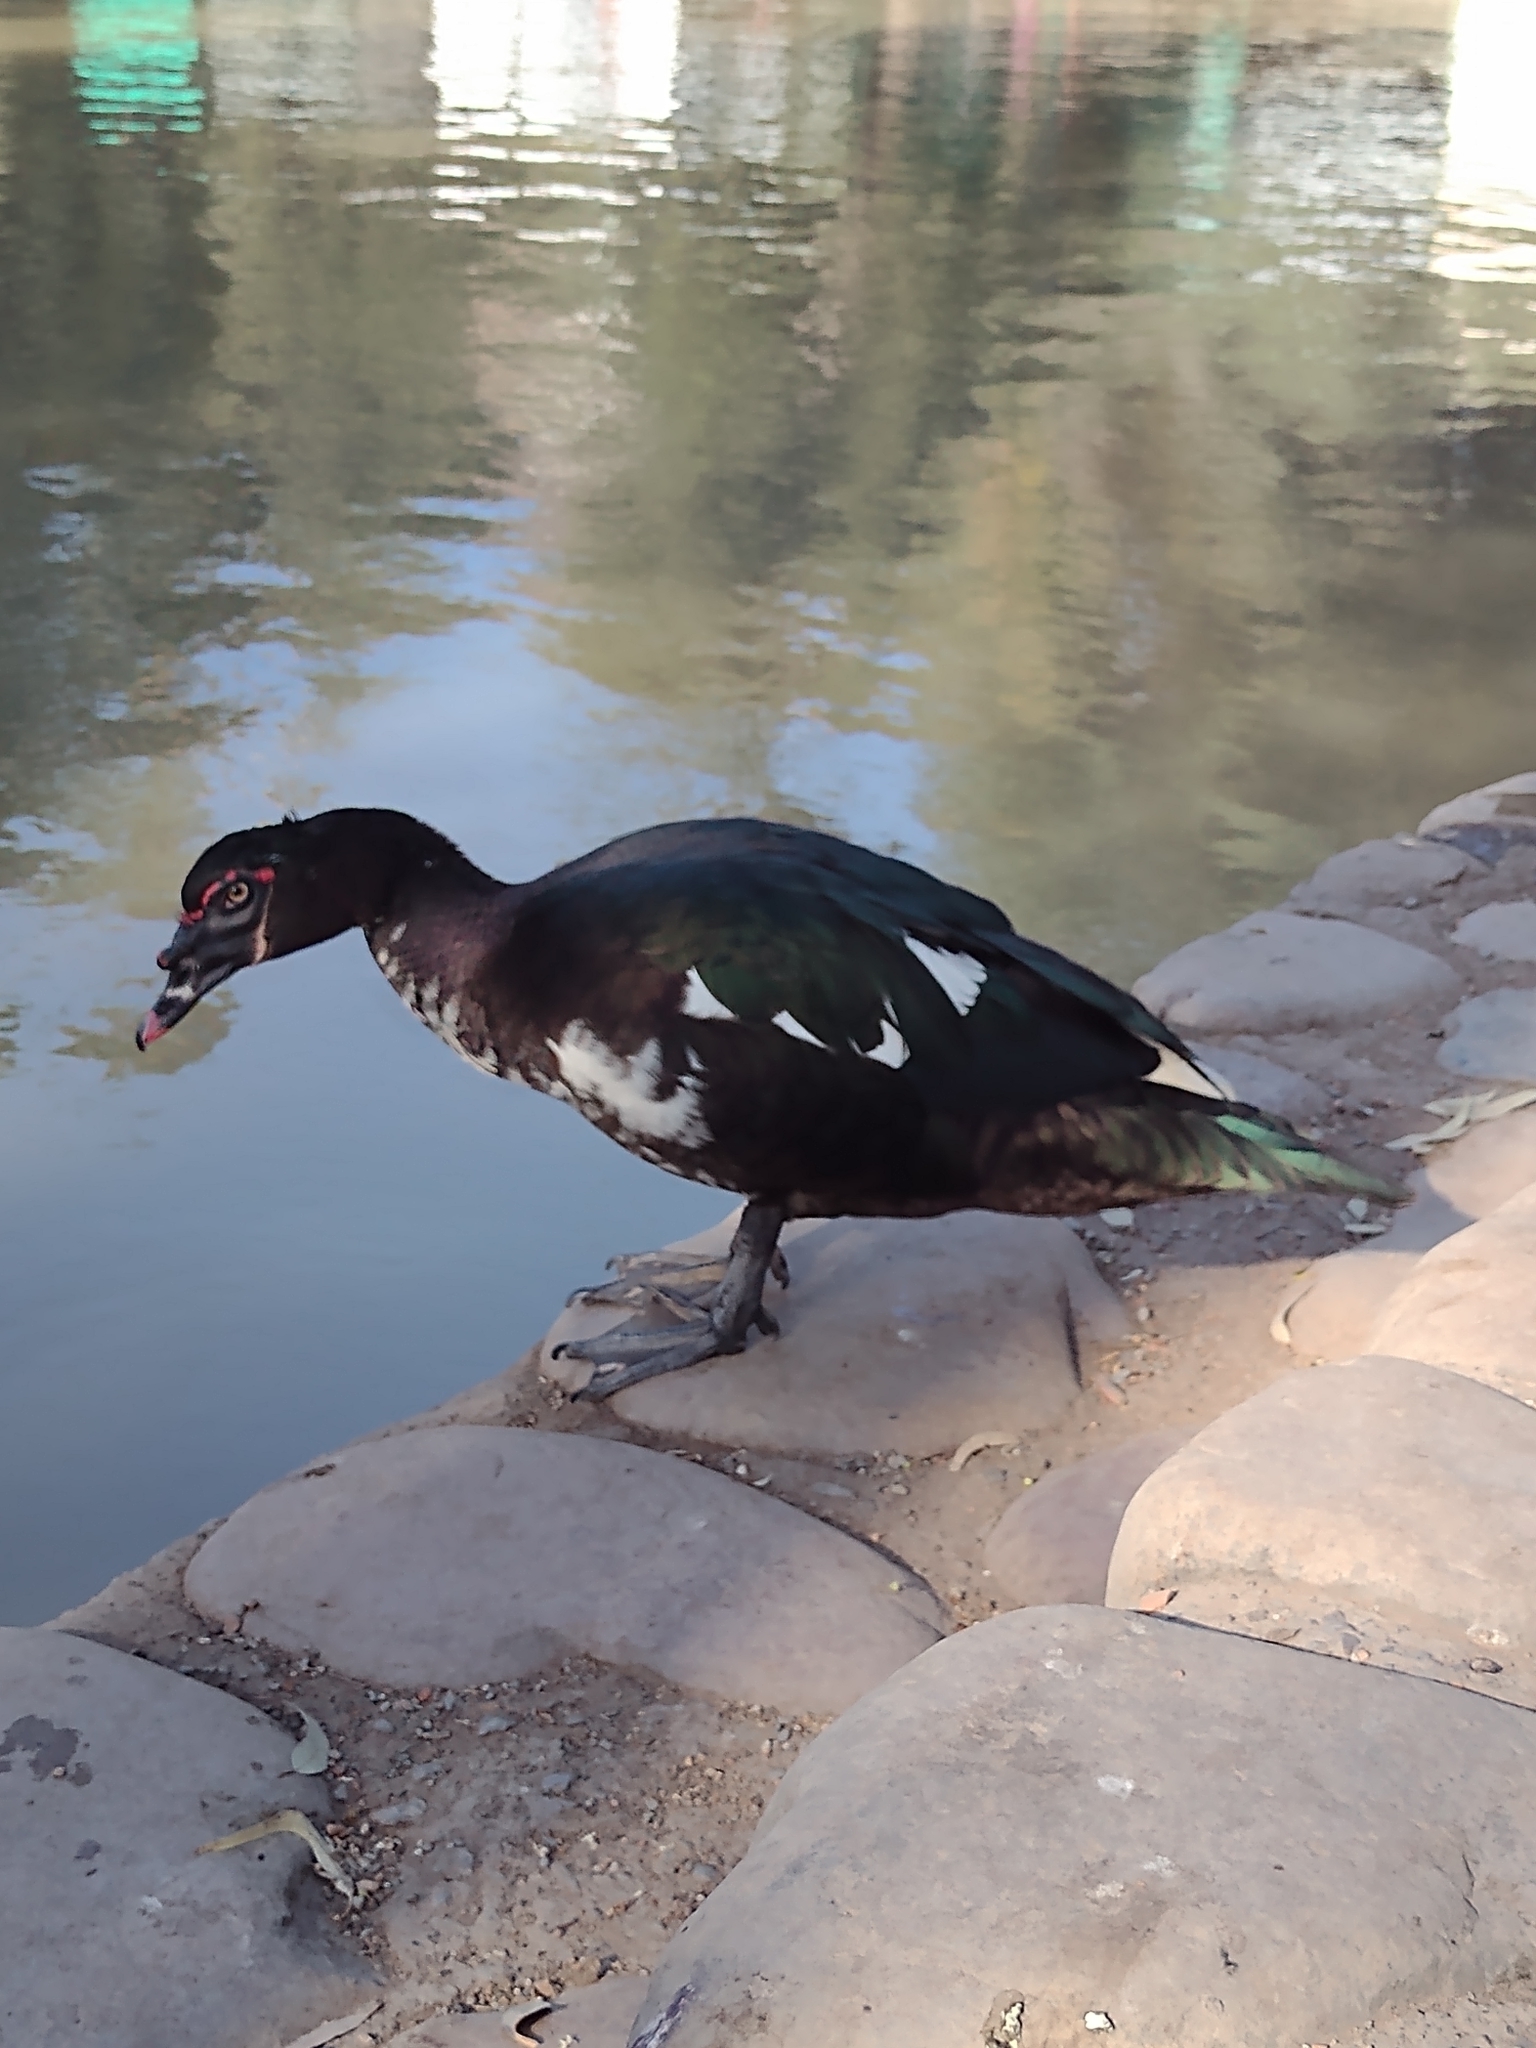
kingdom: Animalia
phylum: Chordata
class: Aves
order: Anseriformes
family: Anatidae
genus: Cairina
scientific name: Cairina moschata
